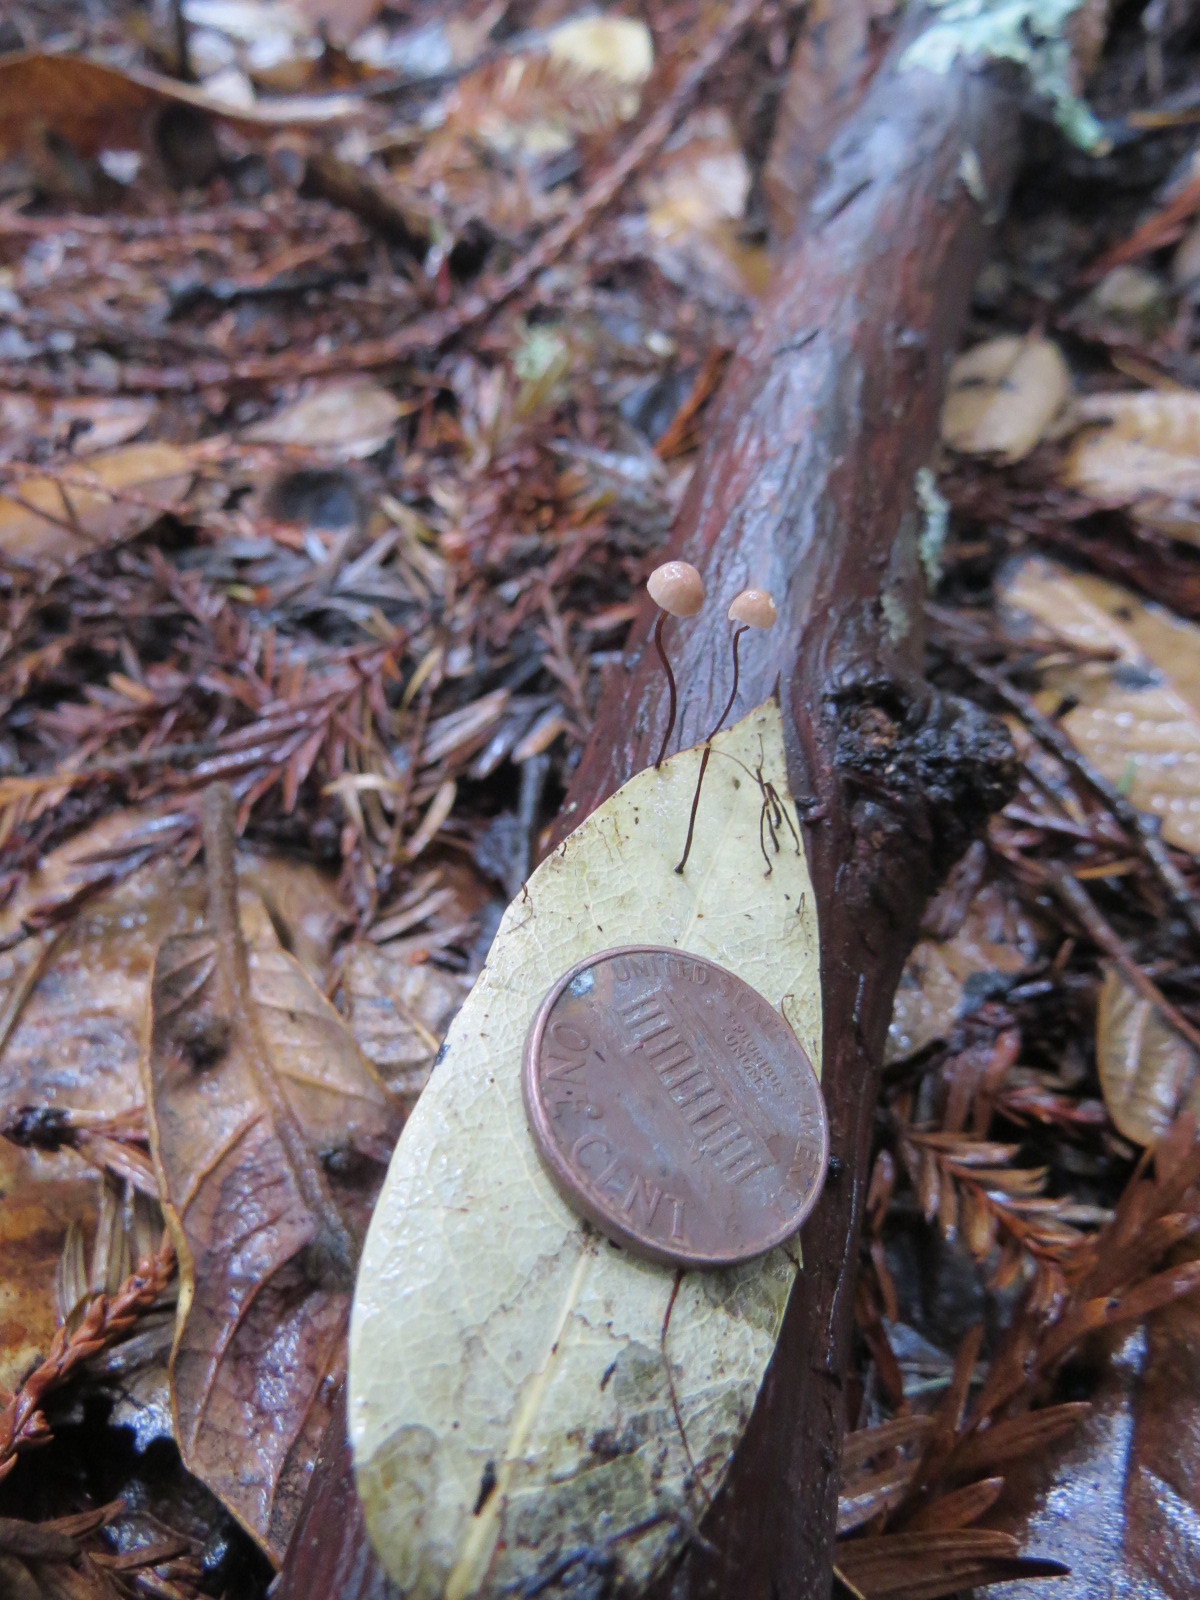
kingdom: Fungi
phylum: Basidiomycota
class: Agaricomycetes
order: Agaricales
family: Omphalotaceae
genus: Collybiopsis
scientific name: Collybiopsis quercophila
